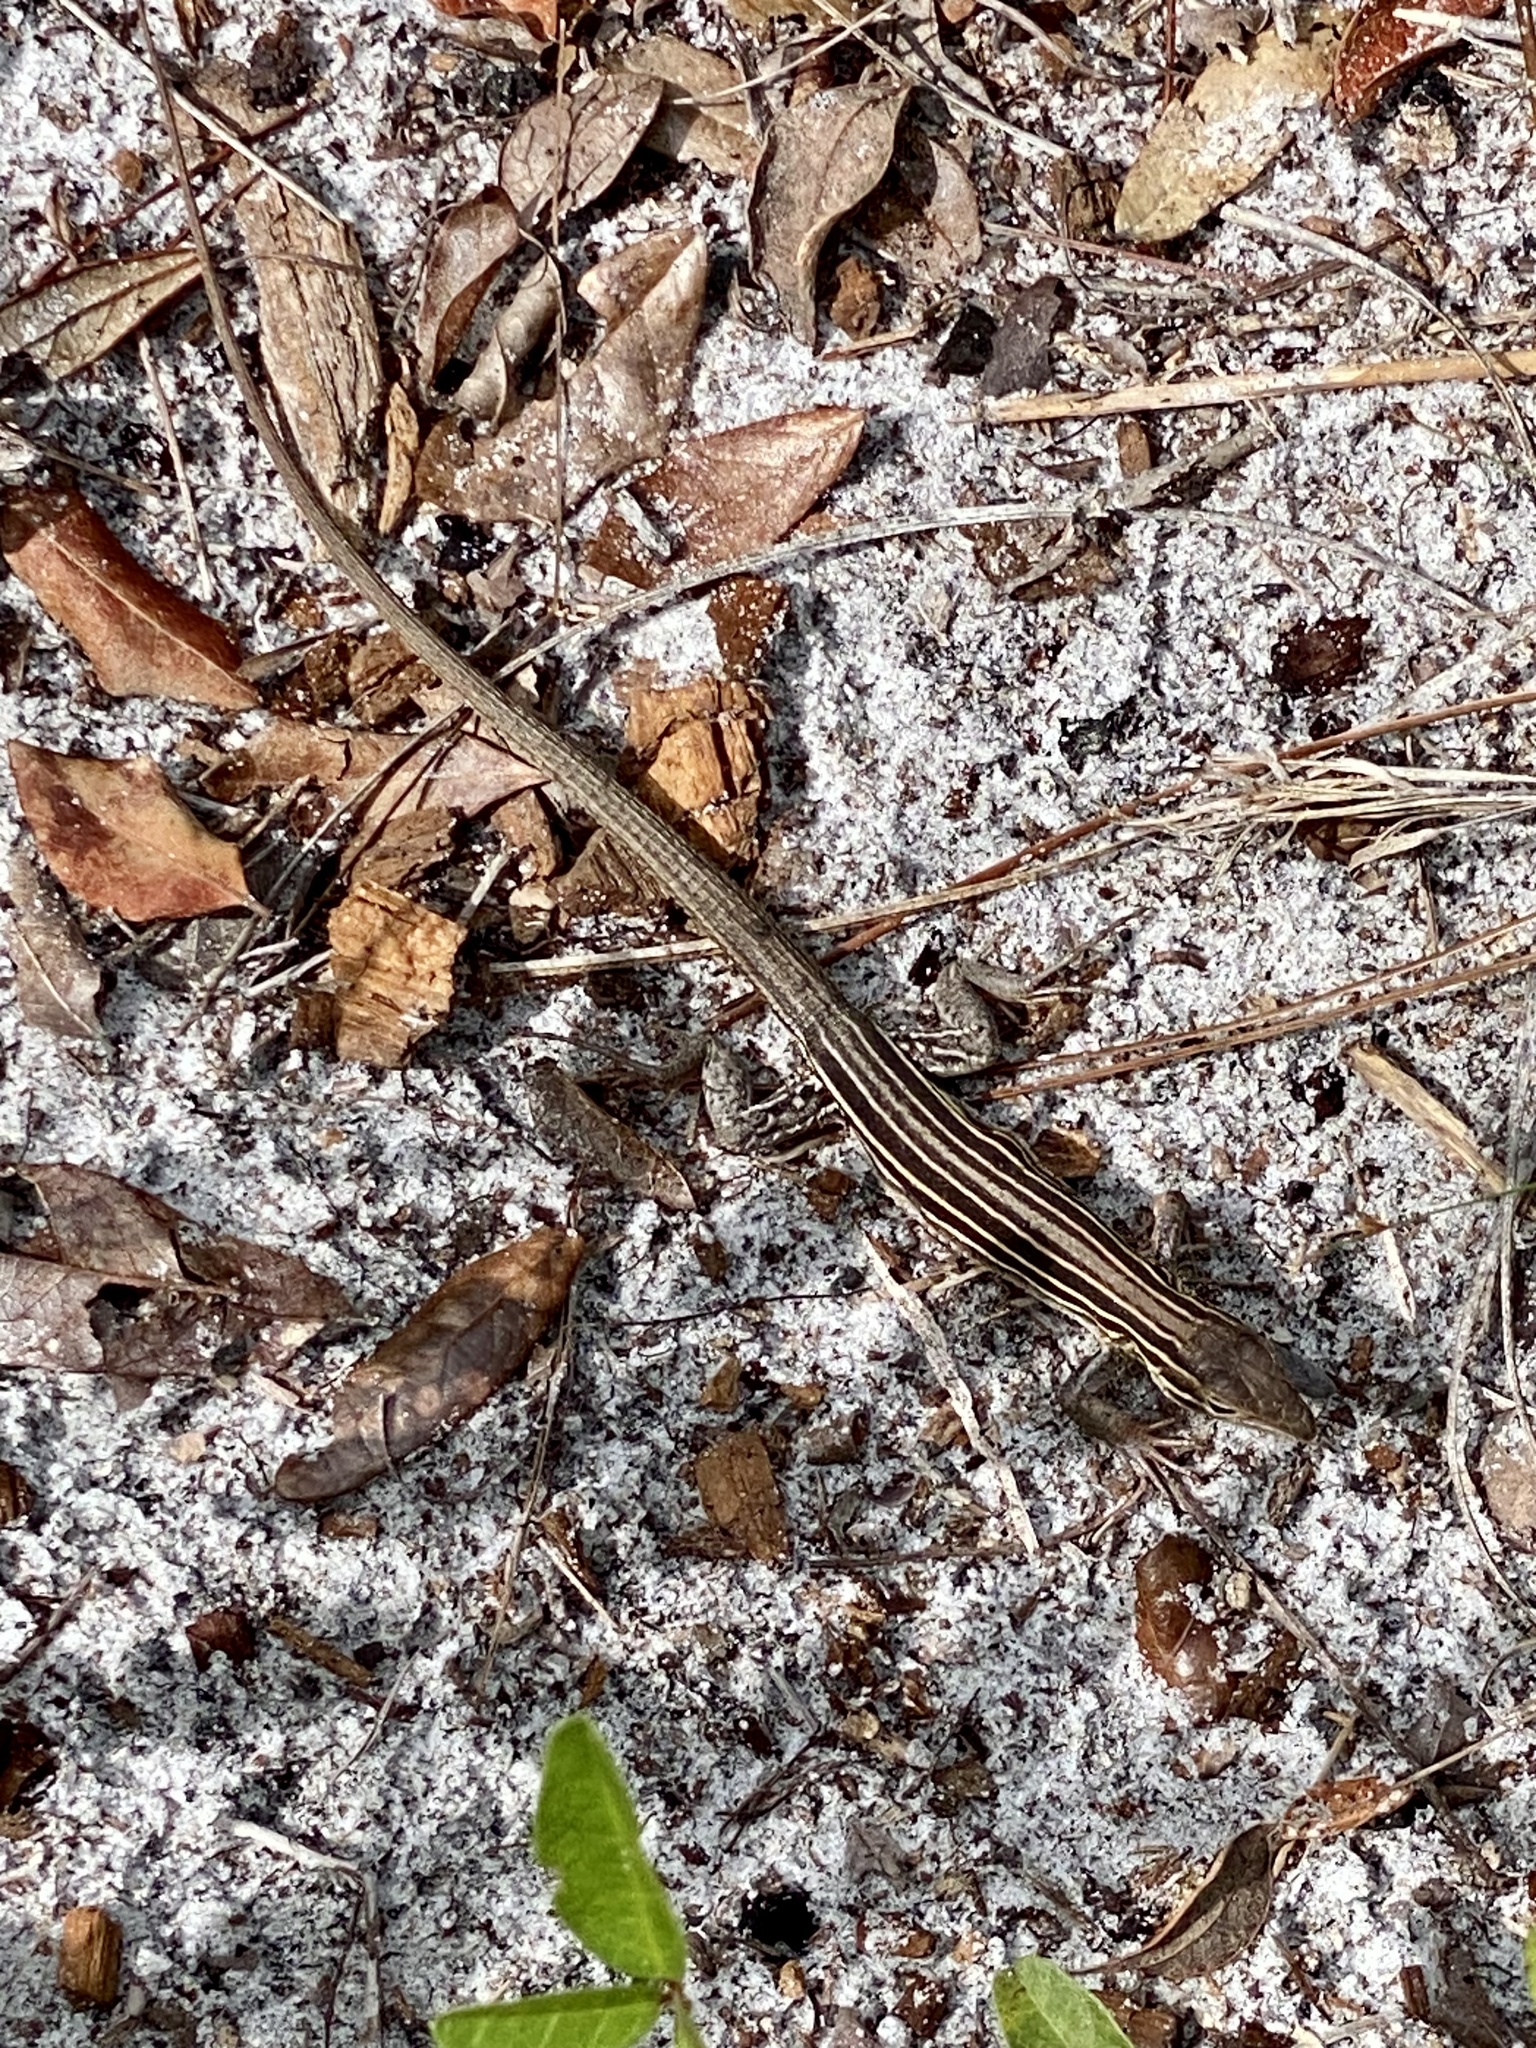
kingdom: Animalia
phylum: Chordata
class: Squamata
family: Teiidae
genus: Aspidoscelis
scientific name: Aspidoscelis sexlineatus
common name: Six-lined racerunner
